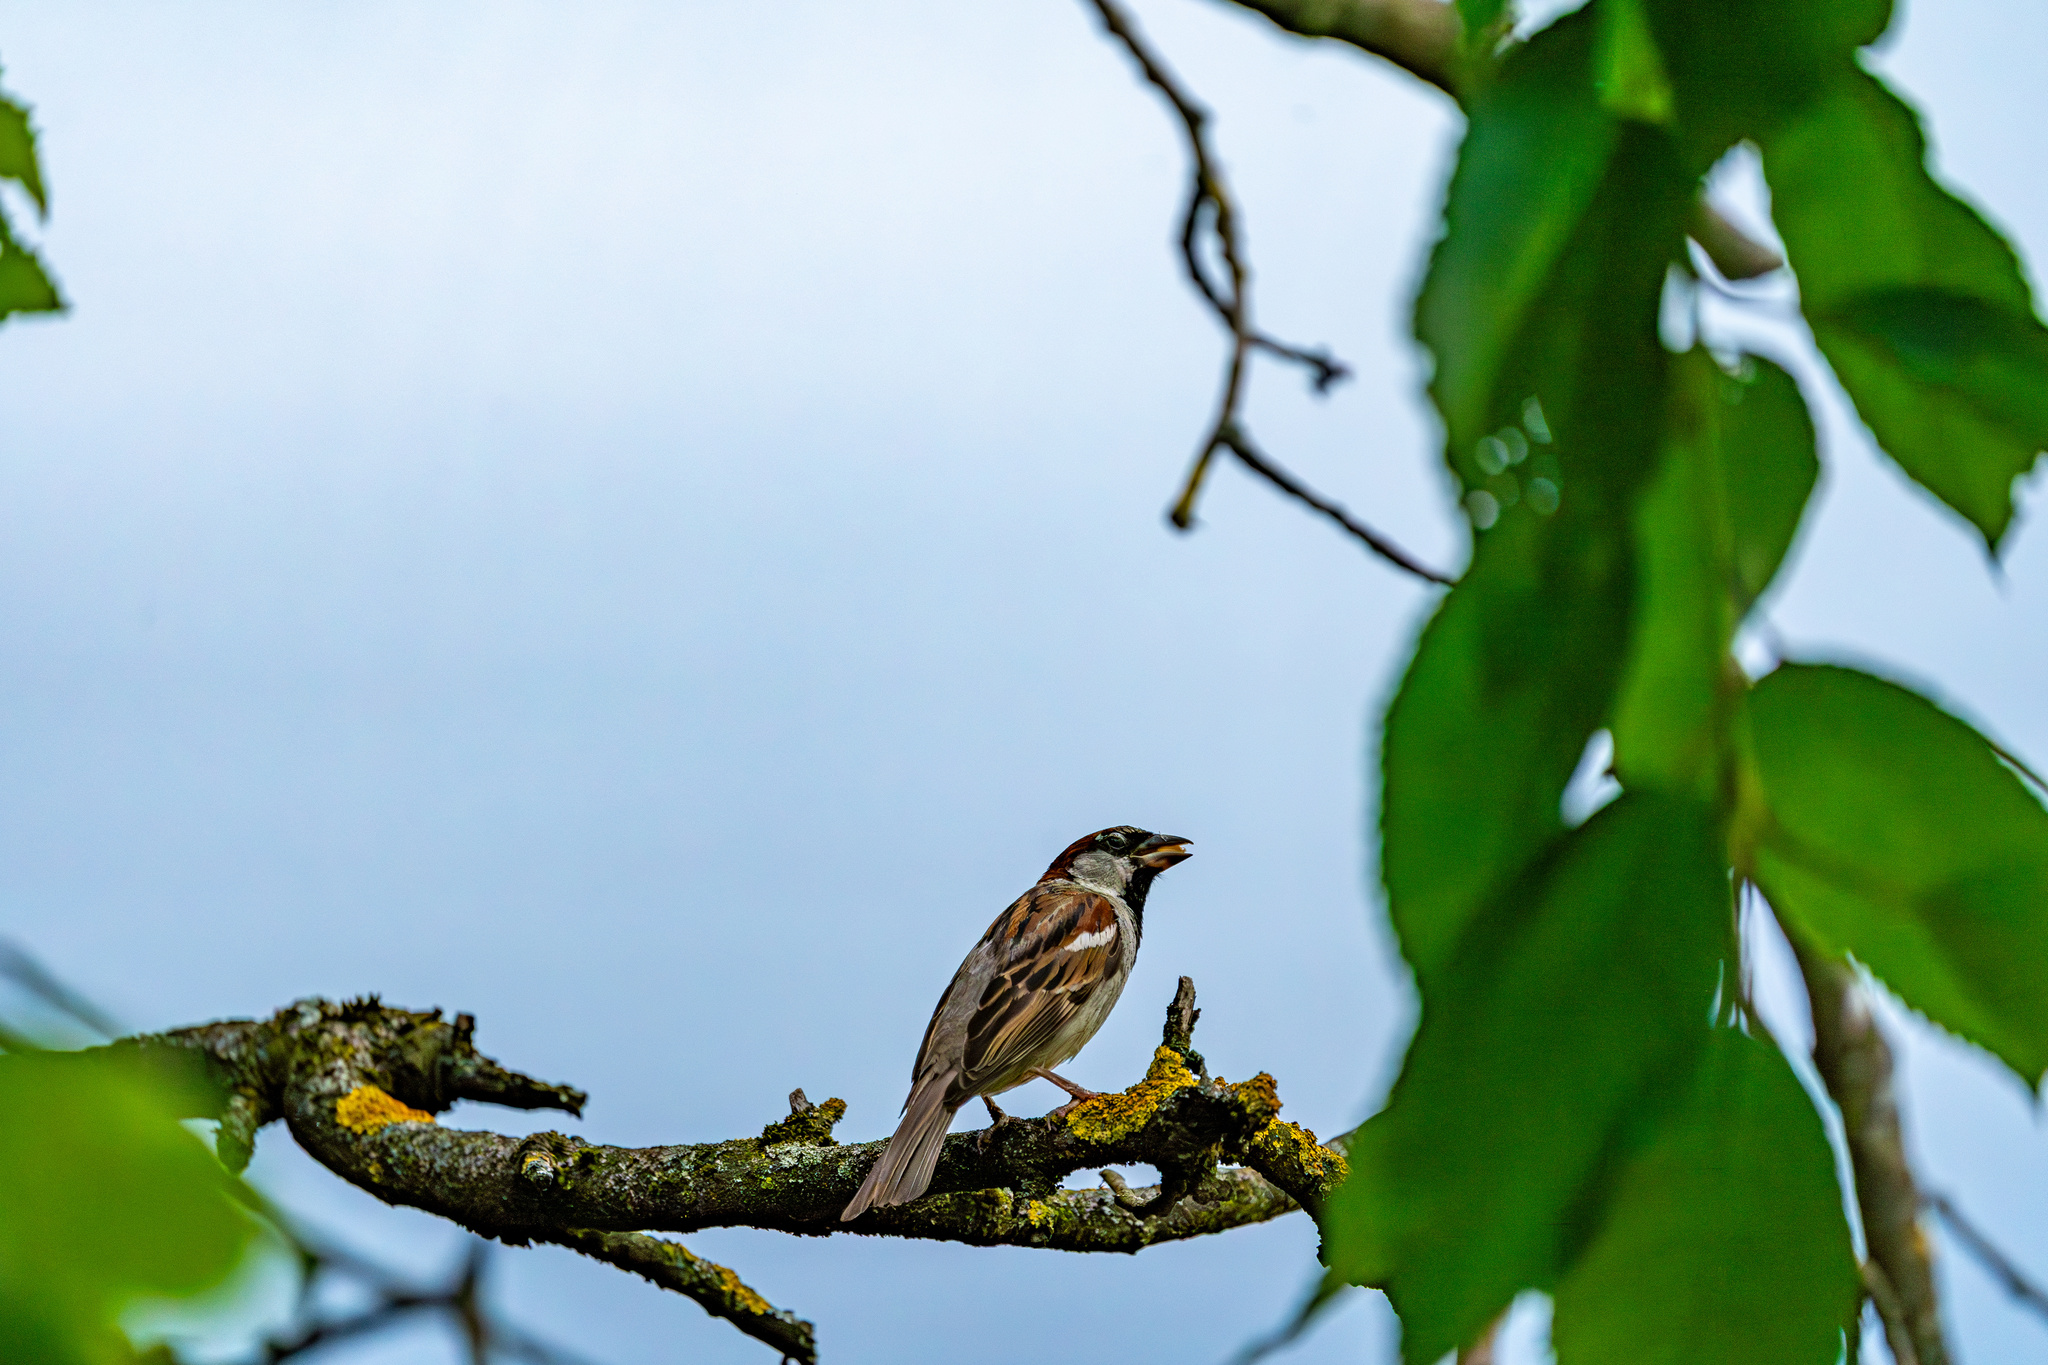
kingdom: Animalia
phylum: Chordata
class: Aves
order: Passeriformes
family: Passeridae
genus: Passer
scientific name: Passer domesticus
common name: House sparrow
